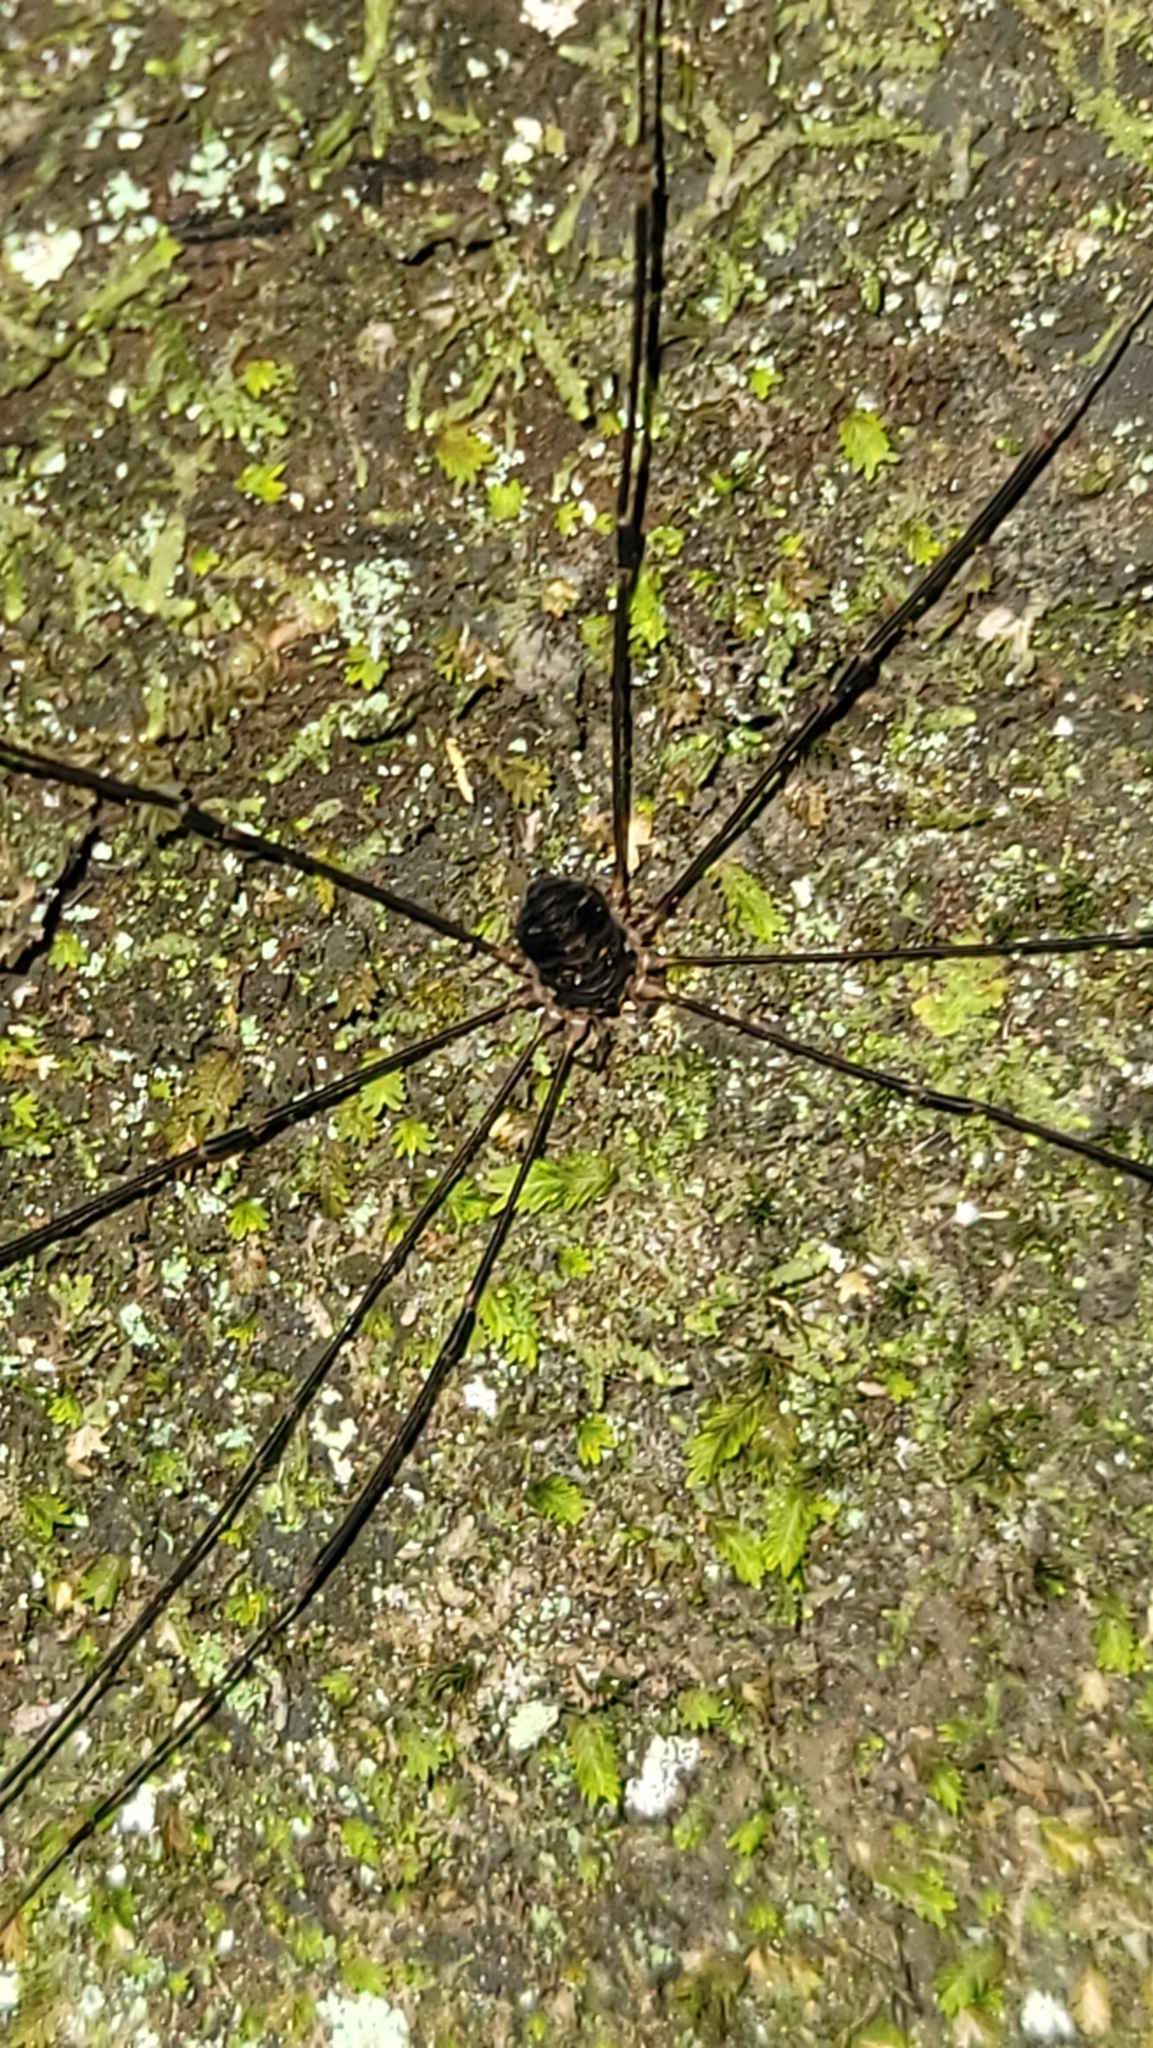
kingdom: Animalia
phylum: Arthropoda
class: Arachnida
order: Opiliones
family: Sclerosomatidae
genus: Nelima
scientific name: Nelima elegans
